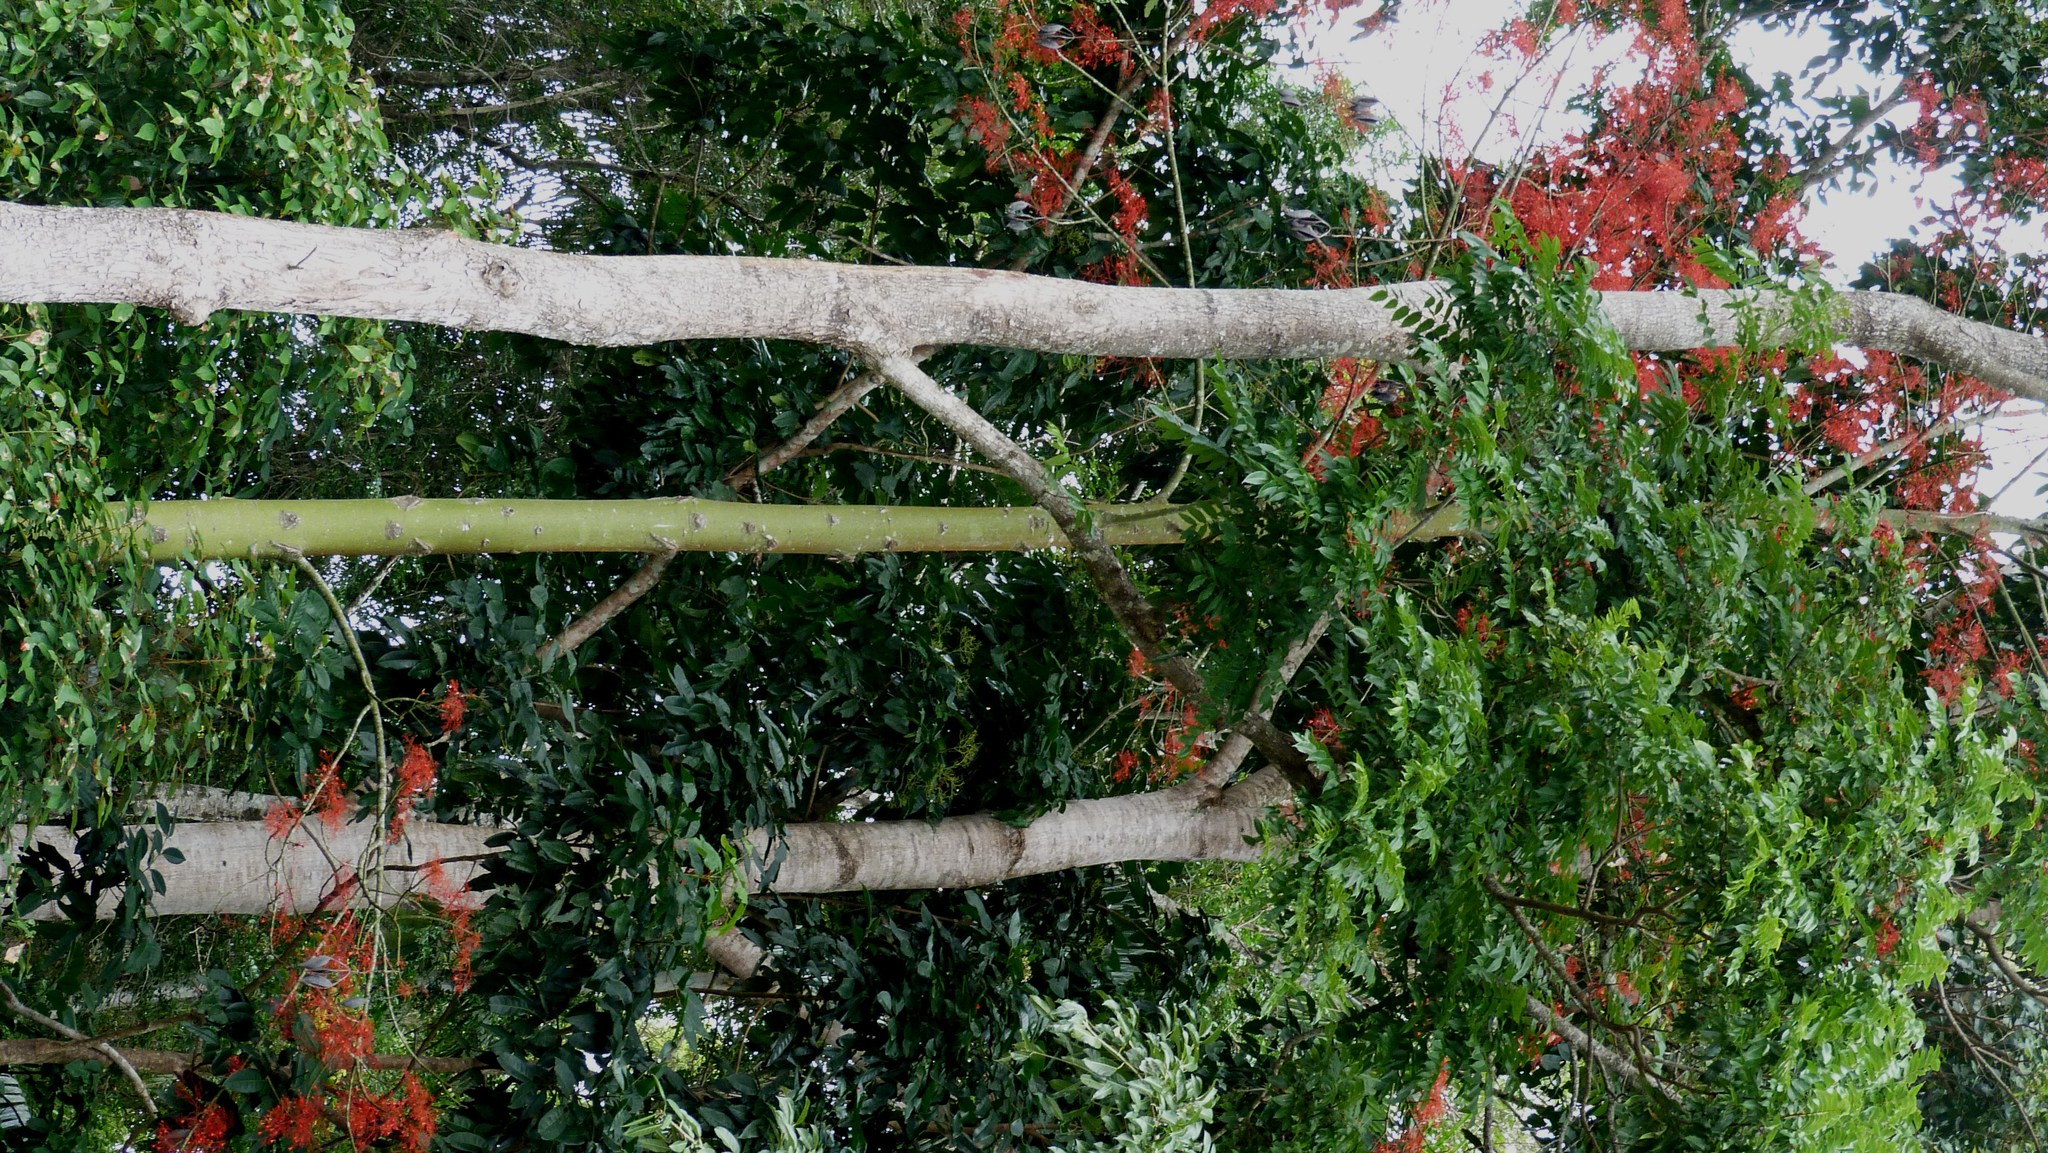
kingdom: Plantae
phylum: Tracheophyta
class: Magnoliopsida
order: Malvales
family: Malvaceae
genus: Brachychiton
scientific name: Brachychiton acerifolius
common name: Illawarra flame tree
